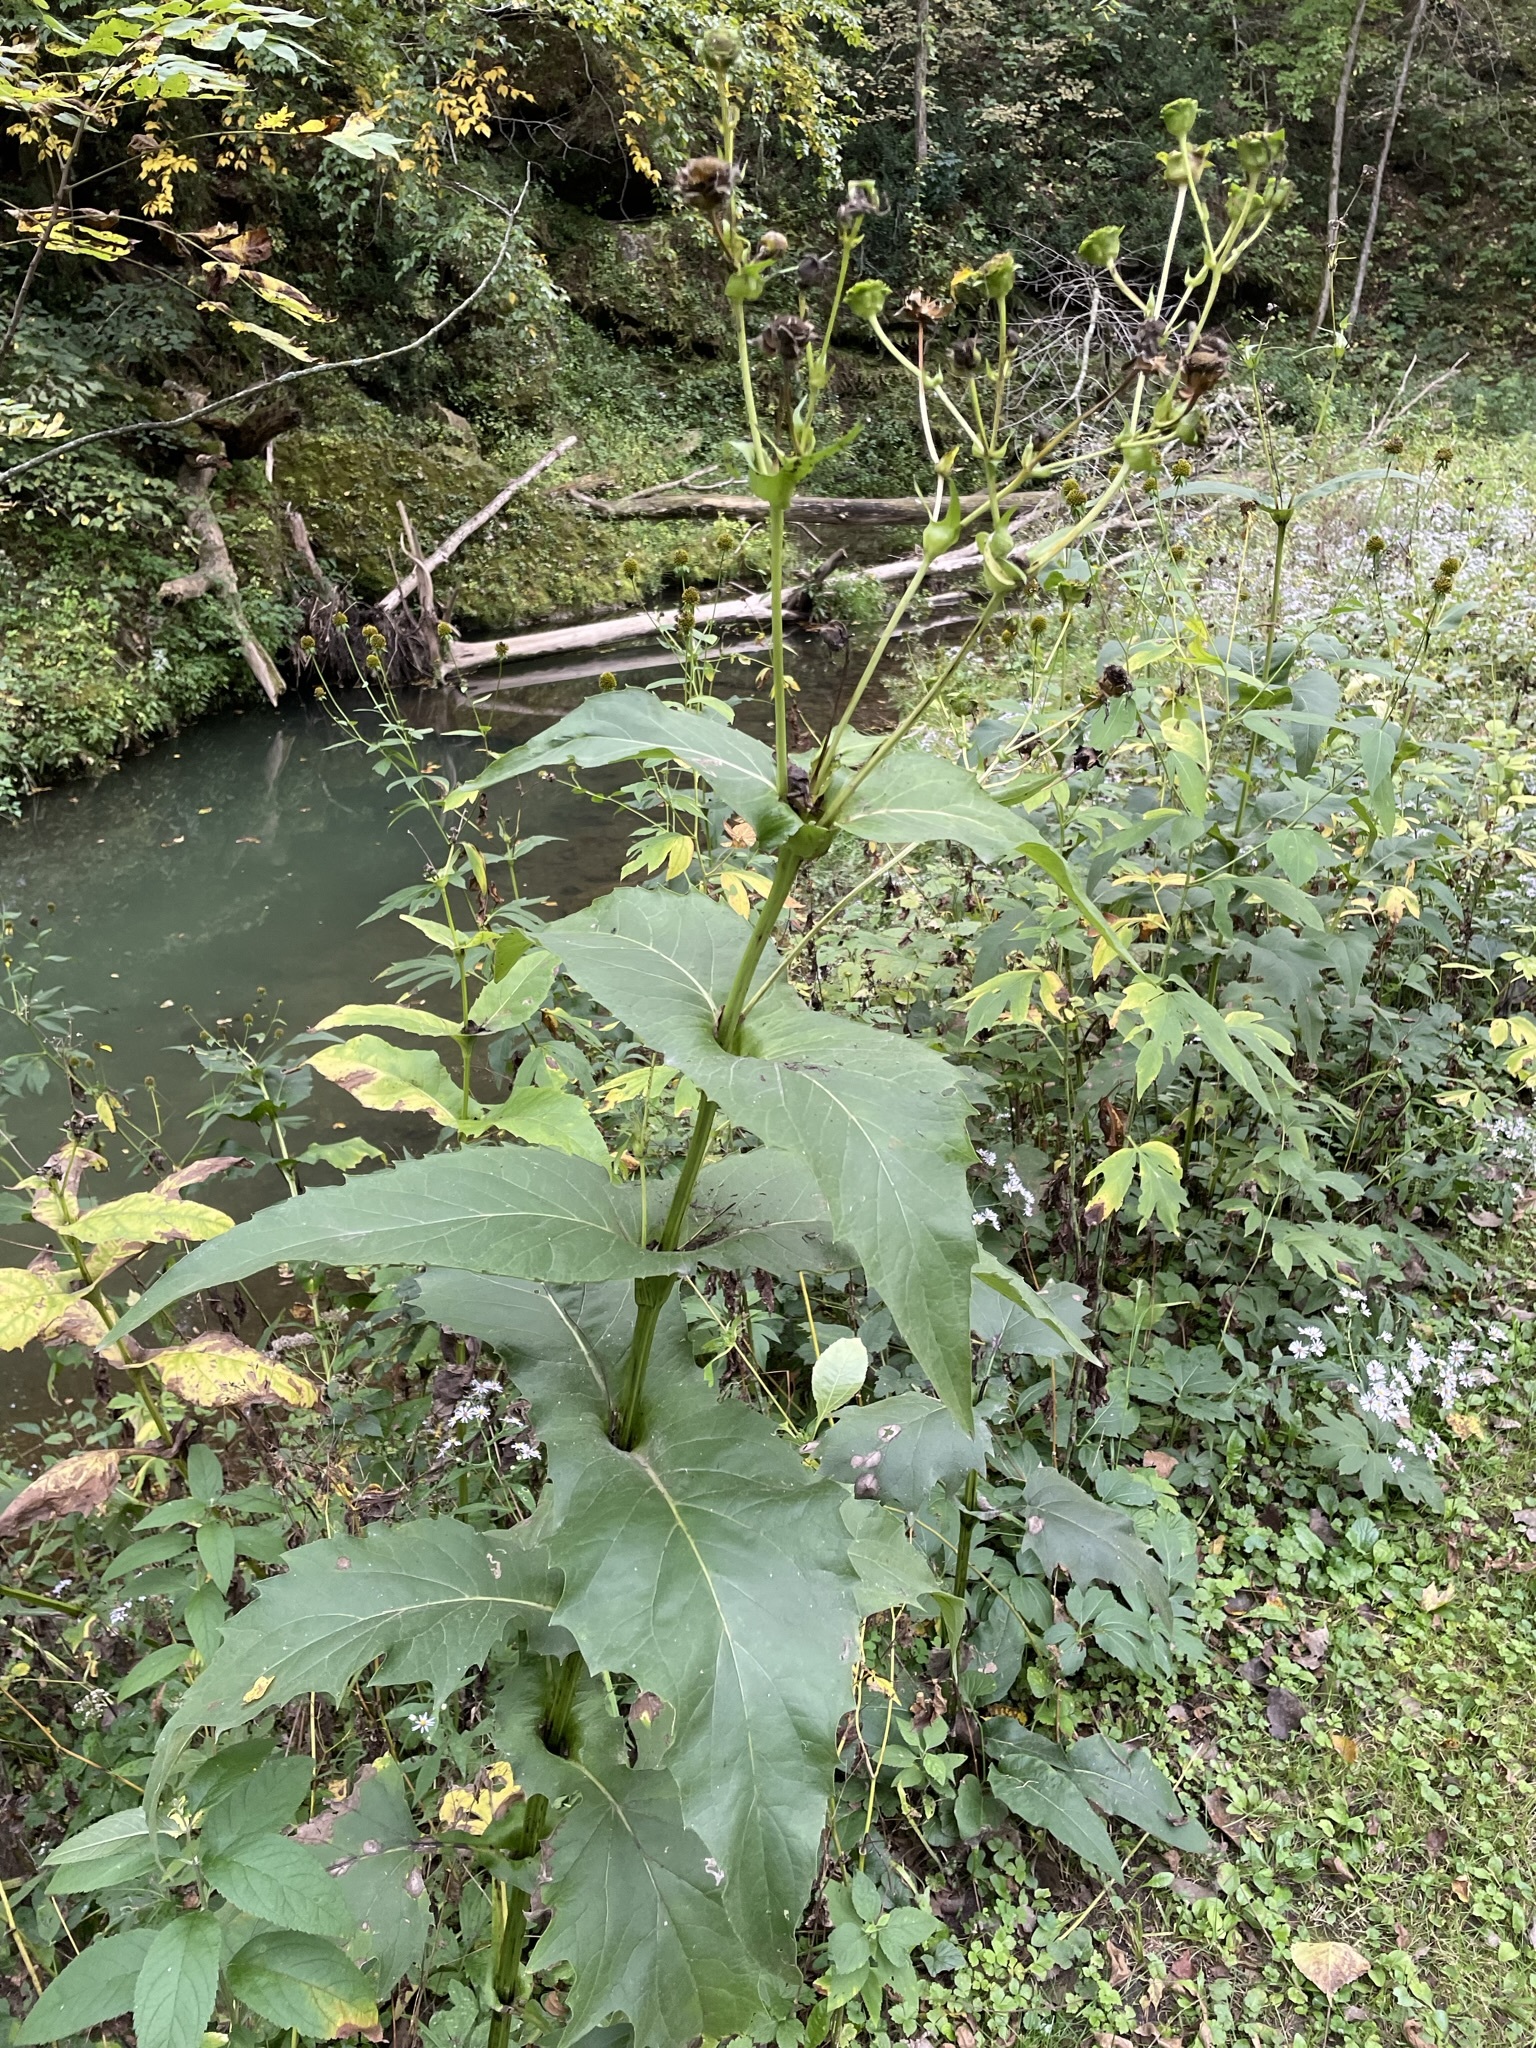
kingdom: Plantae
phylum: Tracheophyta
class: Magnoliopsida
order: Asterales
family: Asteraceae
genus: Silphium
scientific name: Silphium perfoliatum
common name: Cup-plant
